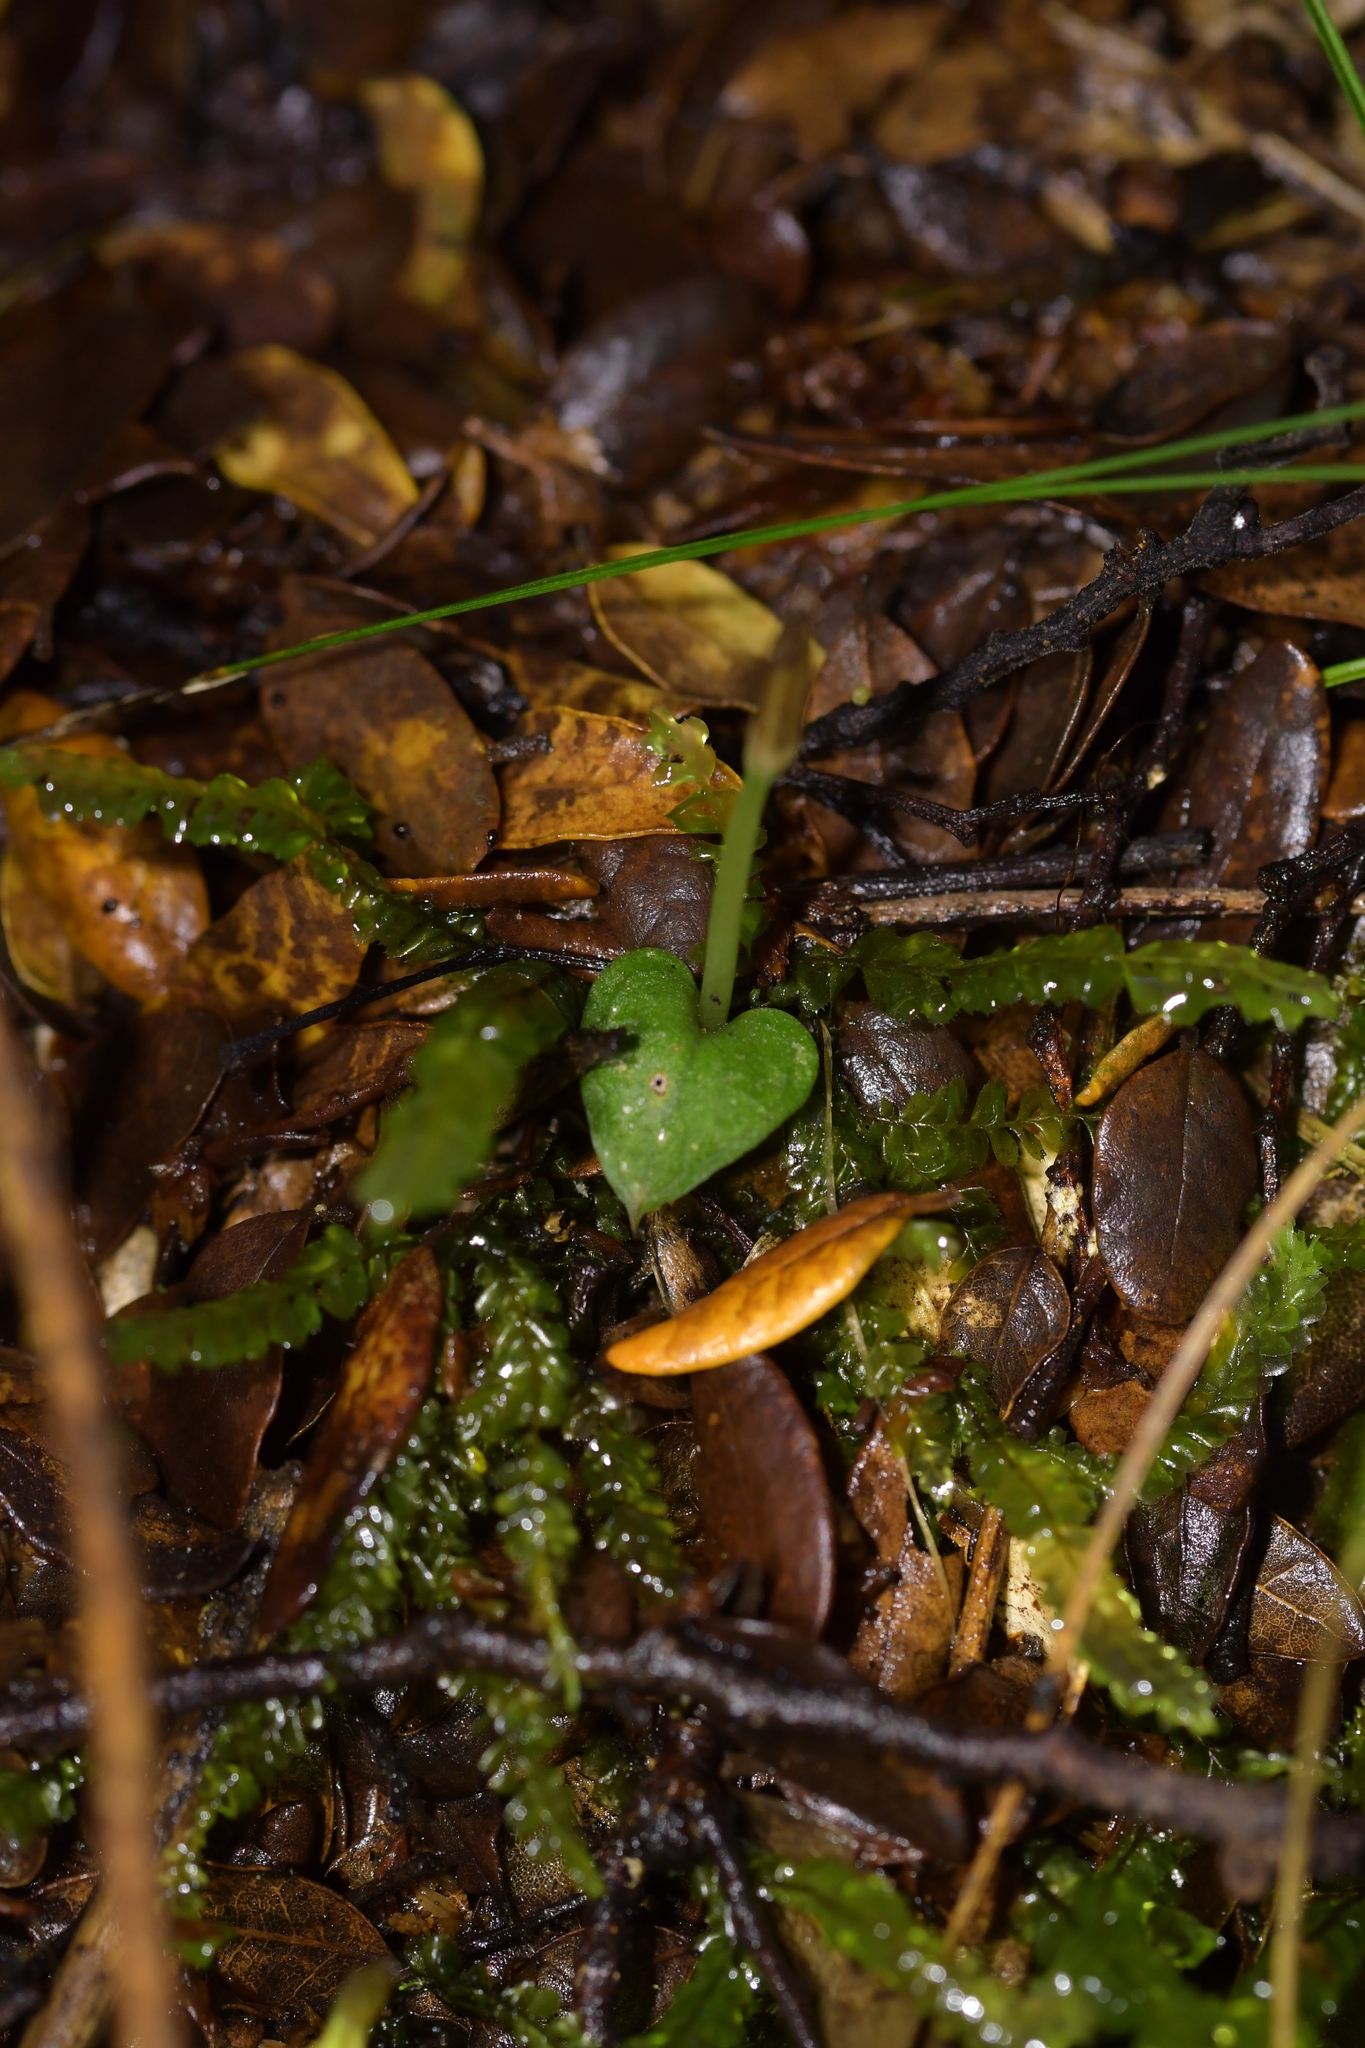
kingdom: Plantae
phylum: Tracheophyta
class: Liliopsida
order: Asparagales
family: Orchidaceae
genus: Corybas
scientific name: Corybas cheesemanii
